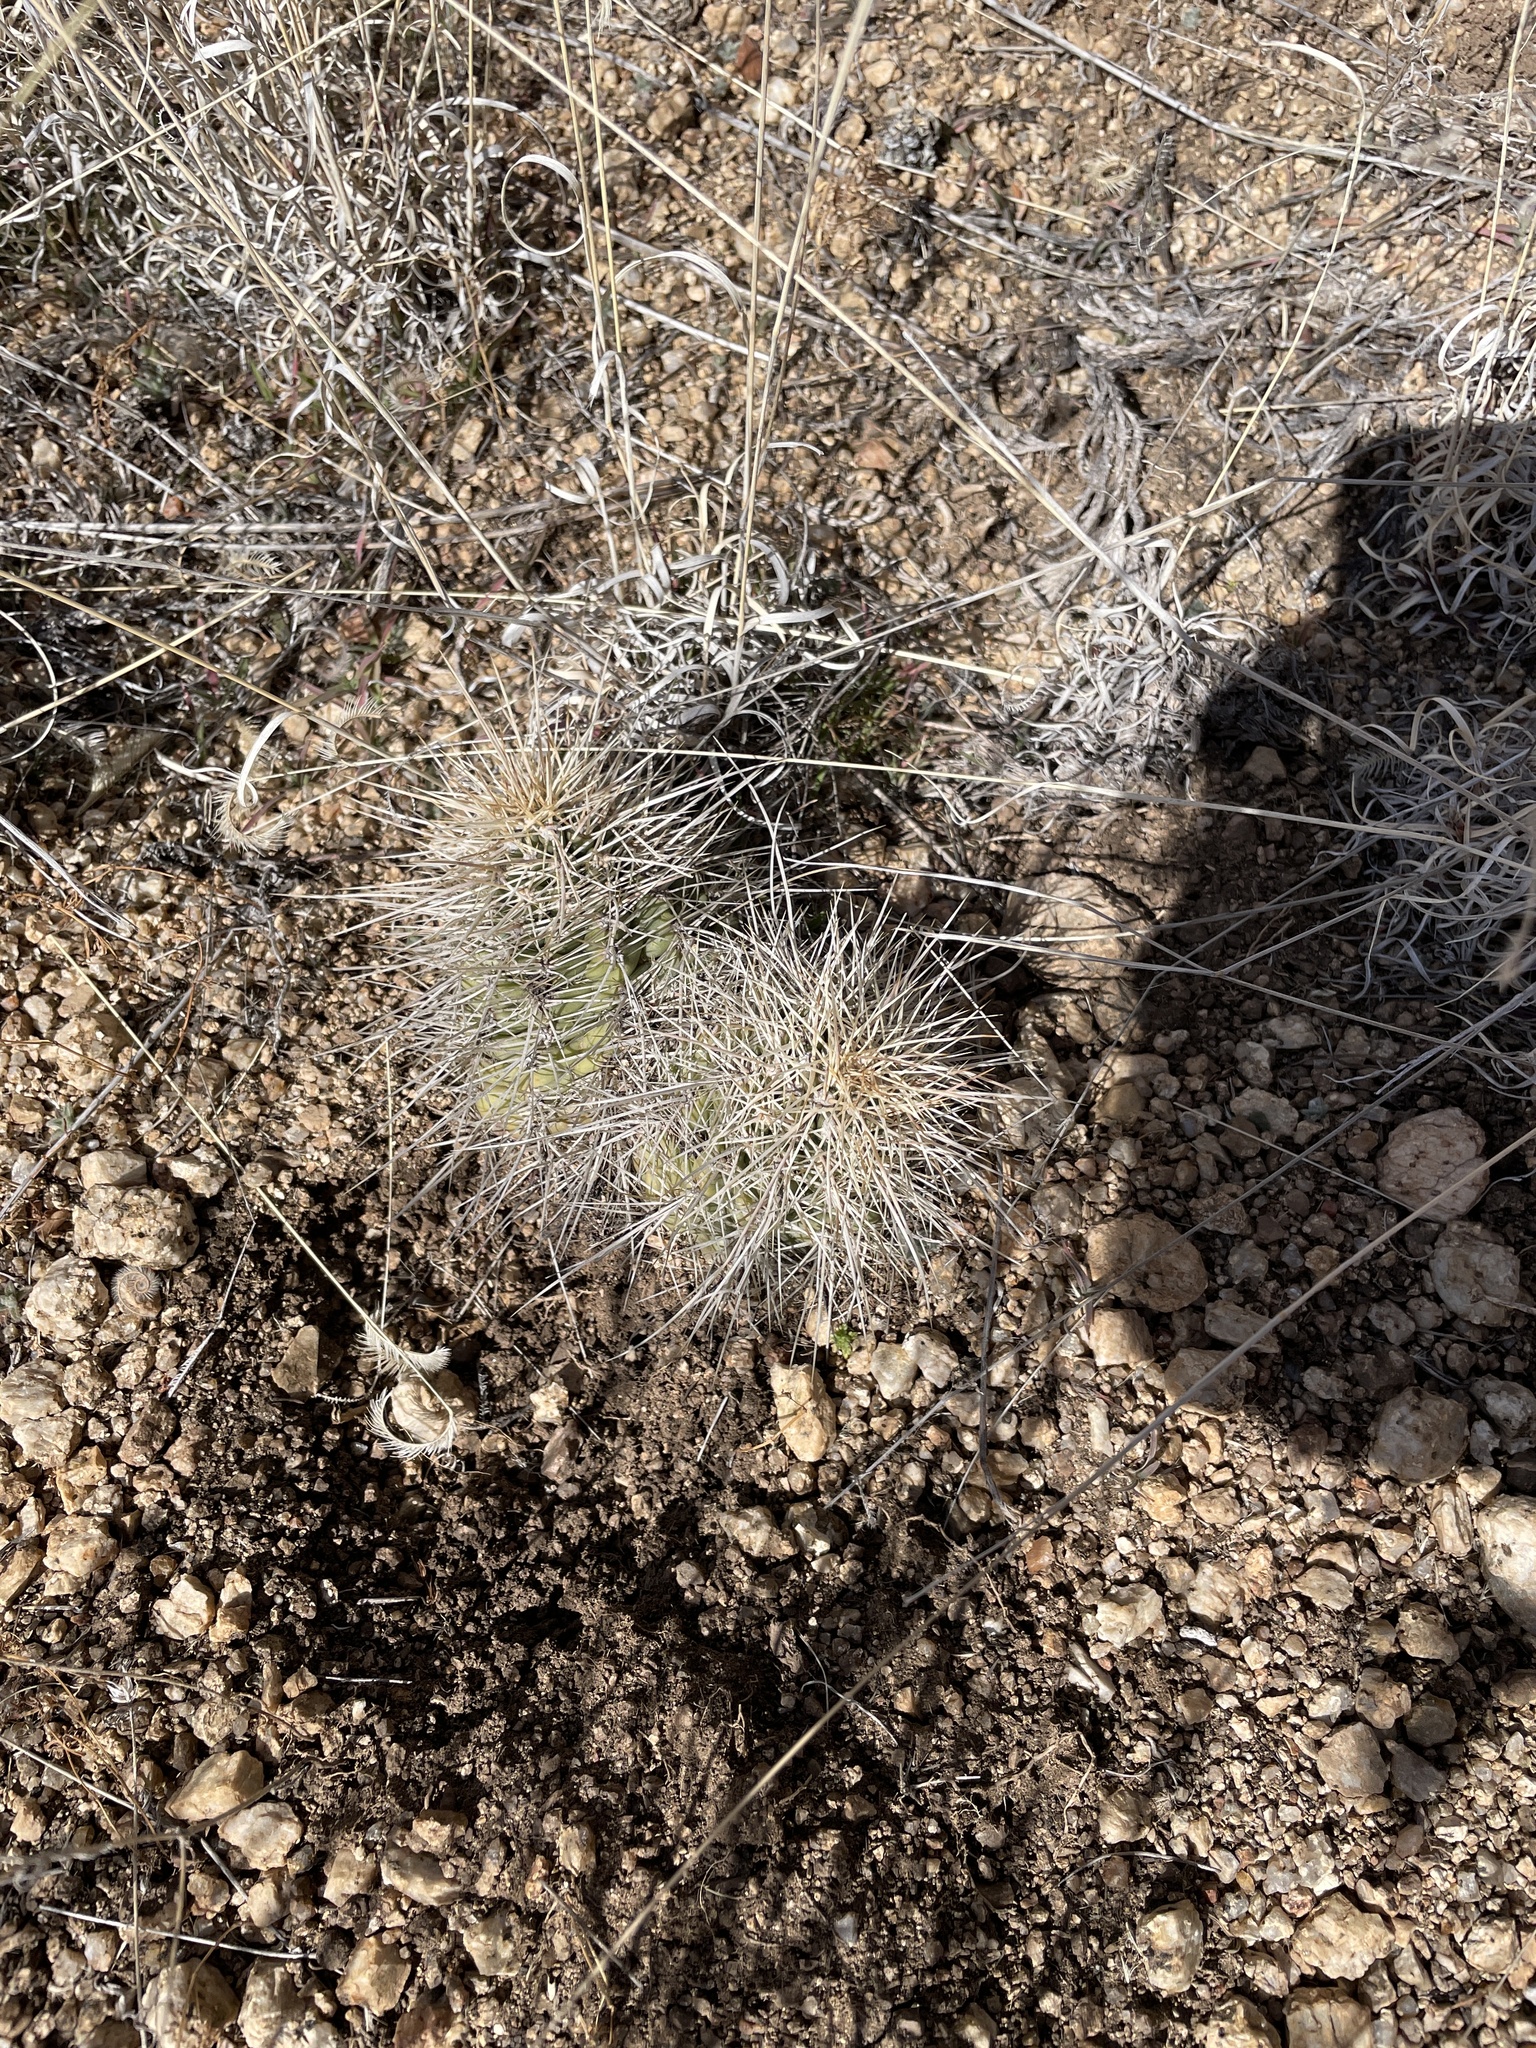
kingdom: Plantae
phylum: Tracheophyta
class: Magnoliopsida
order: Caryophyllales
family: Cactaceae
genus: Echinocereus
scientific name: Echinocereus coccineus
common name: Scarlet hedgehog cactus
